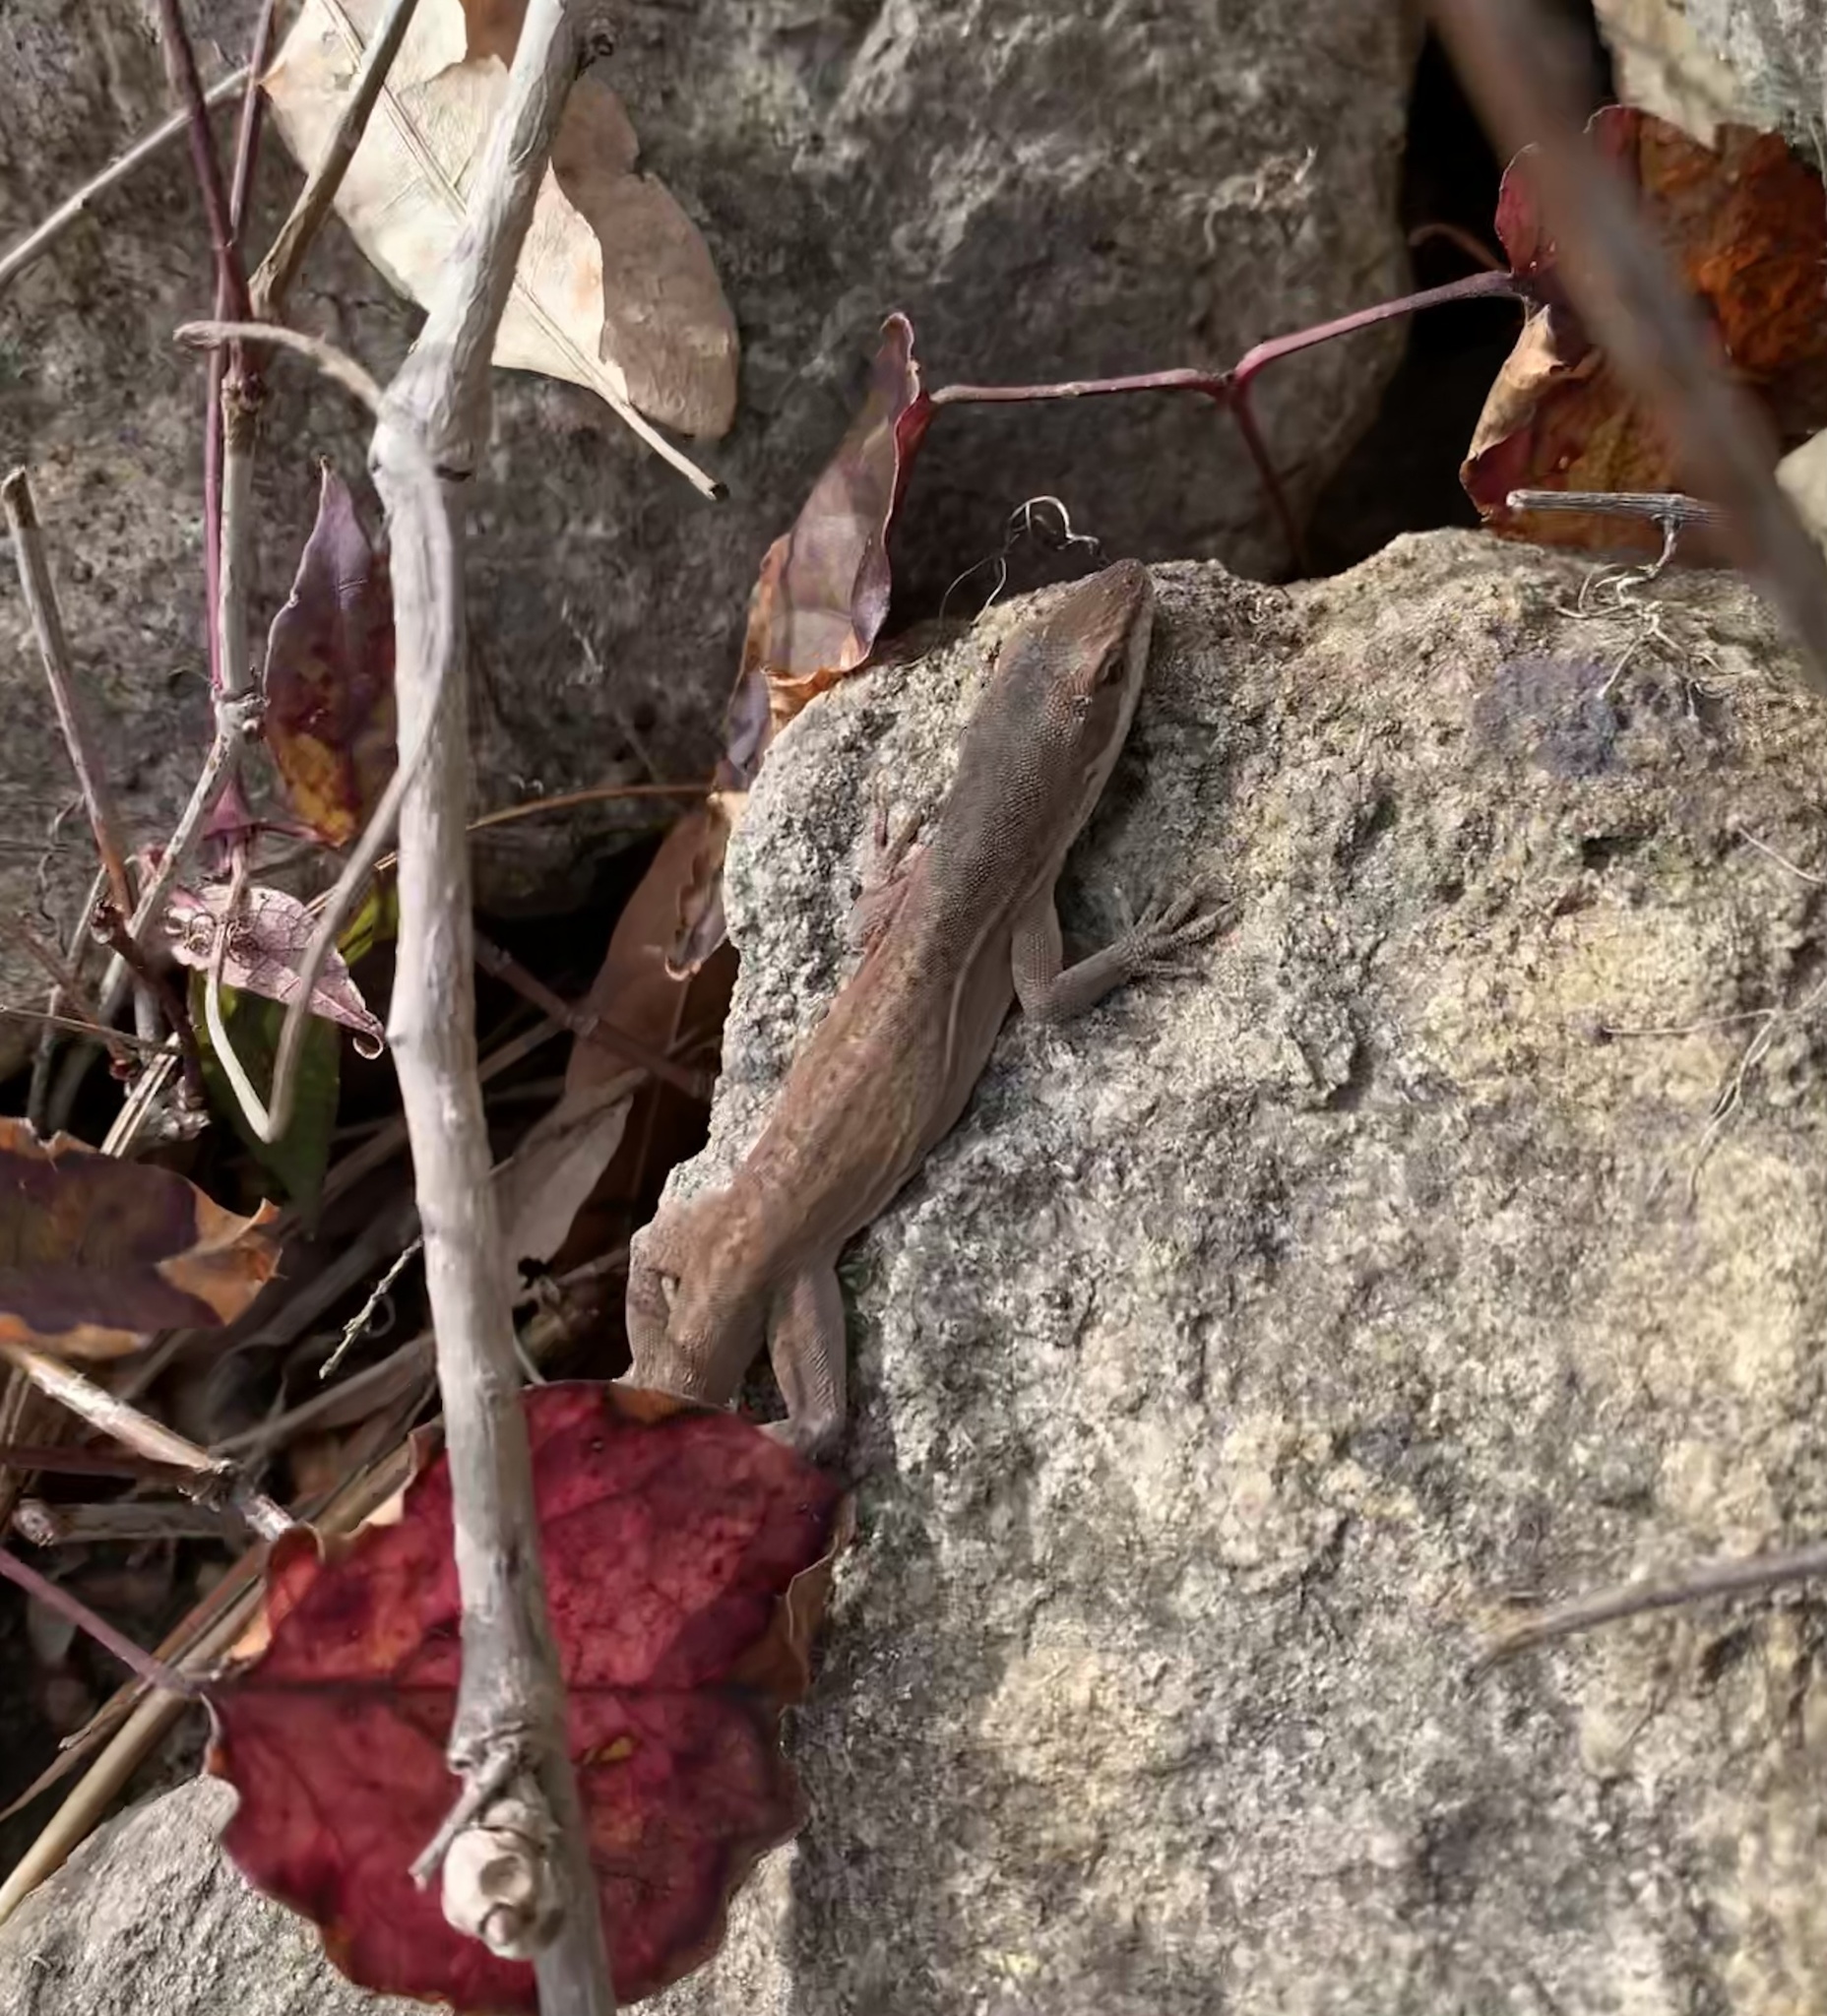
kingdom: Animalia
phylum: Chordata
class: Squamata
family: Dactyloidae
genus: Anolis
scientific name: Anolis carolinensis
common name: Green anole
